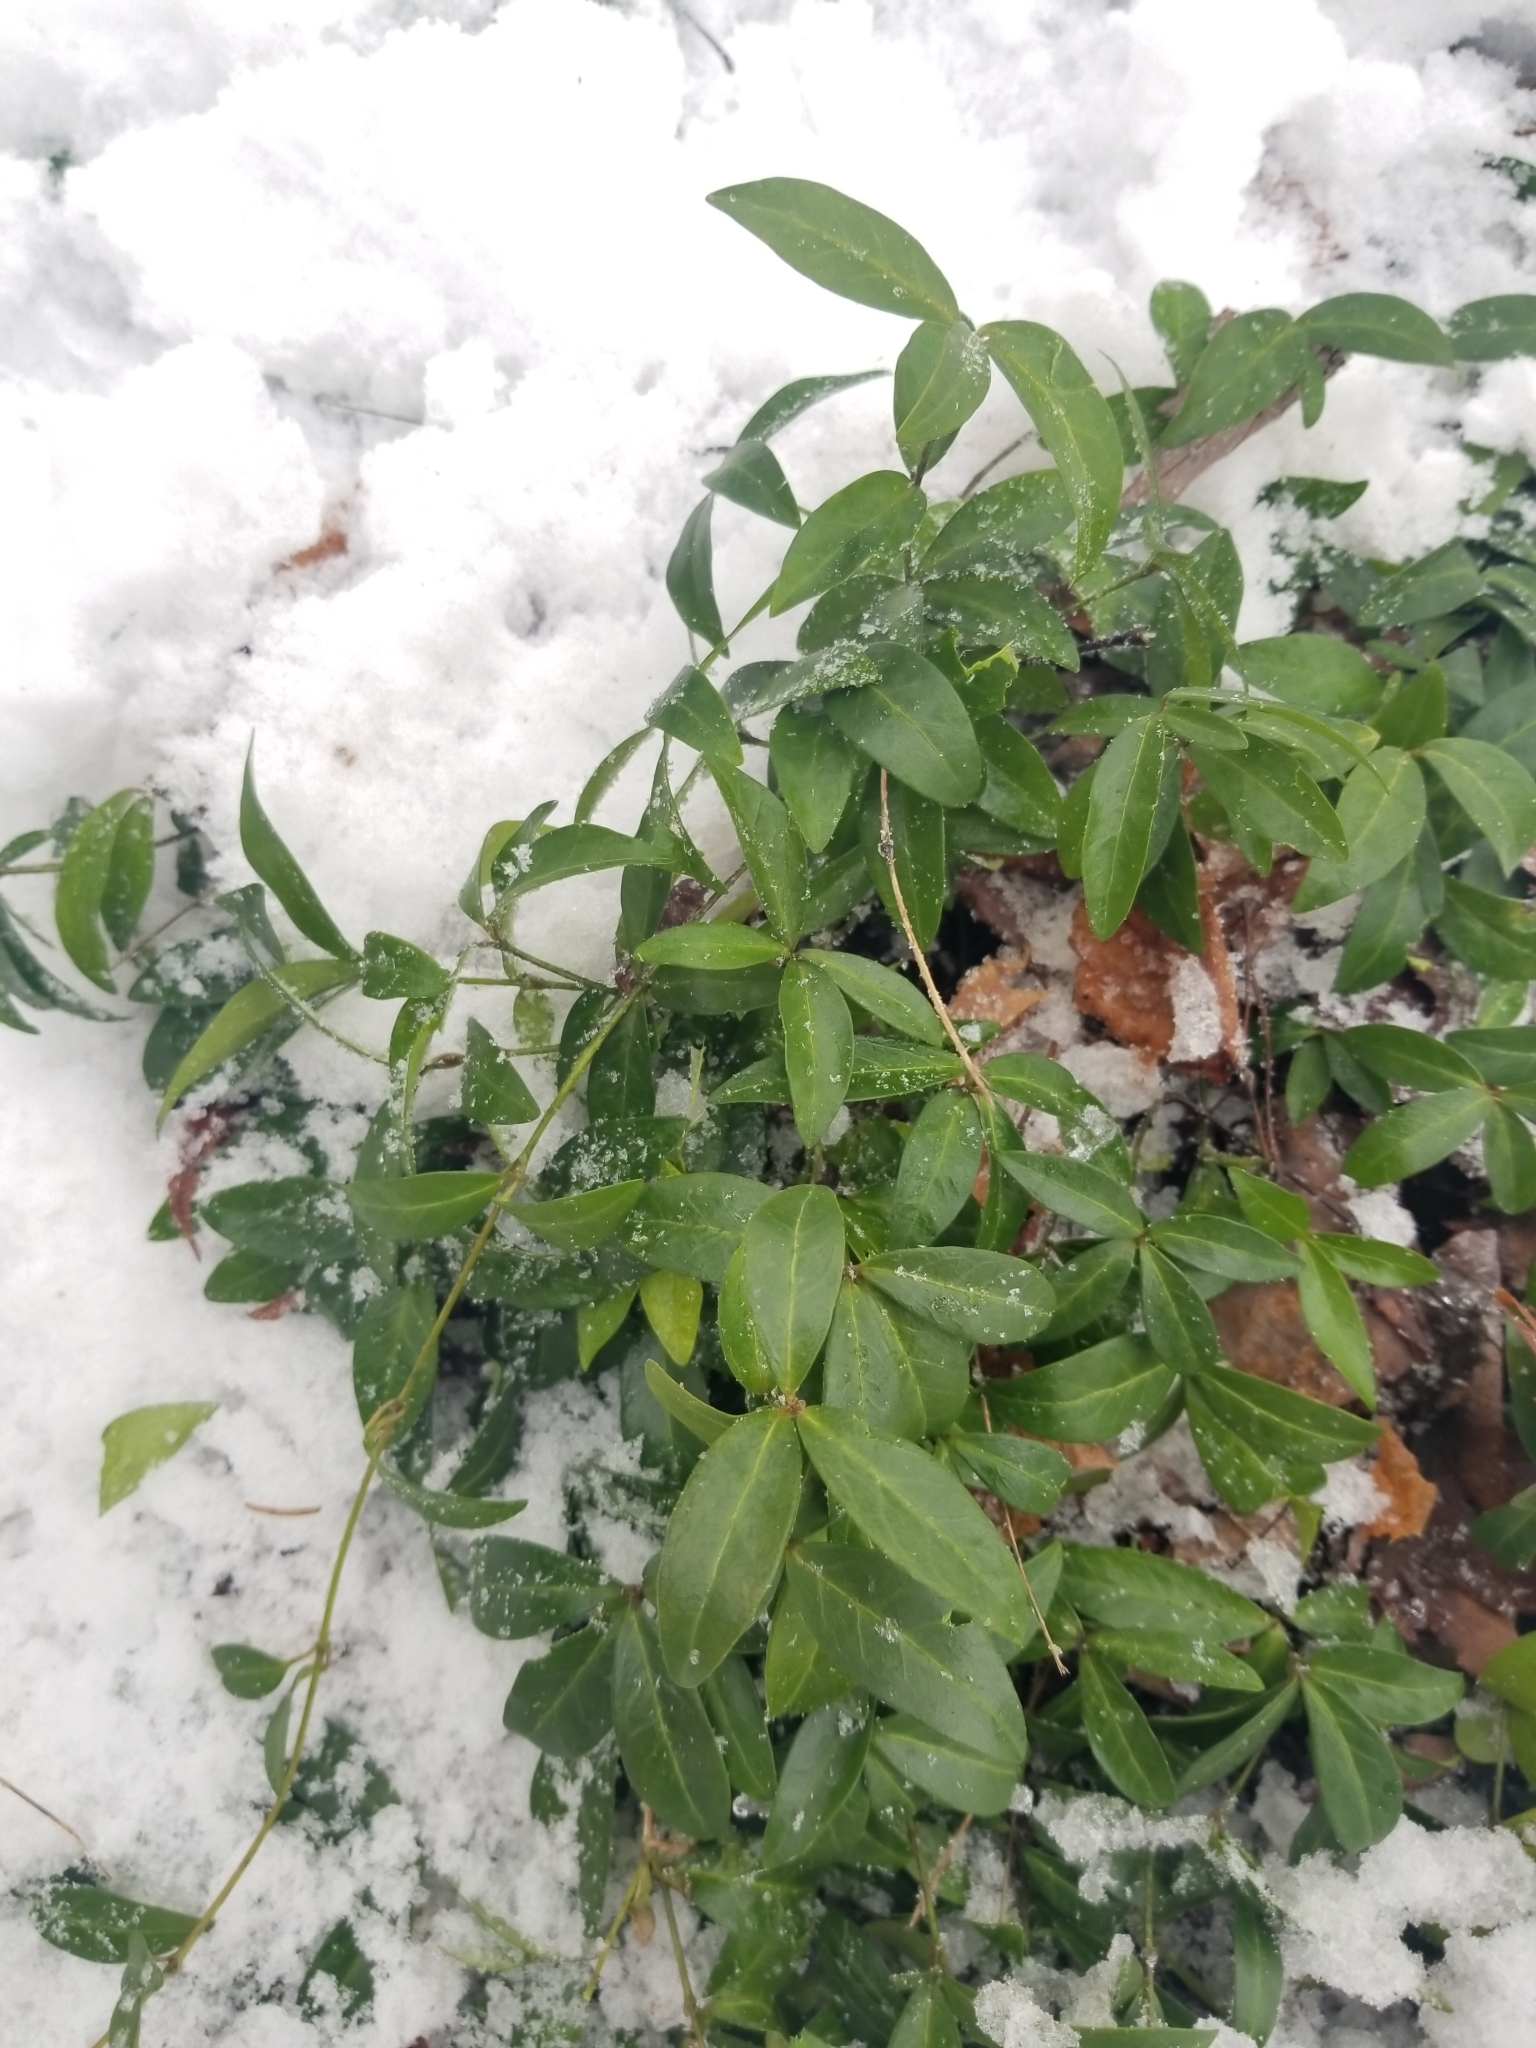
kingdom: Plantae
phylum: Tracheophyta
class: Magnoliopsida
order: Gentianales
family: Apocynaceae
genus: Vinca
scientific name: Vinca minor
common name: Lesser periwinkle
